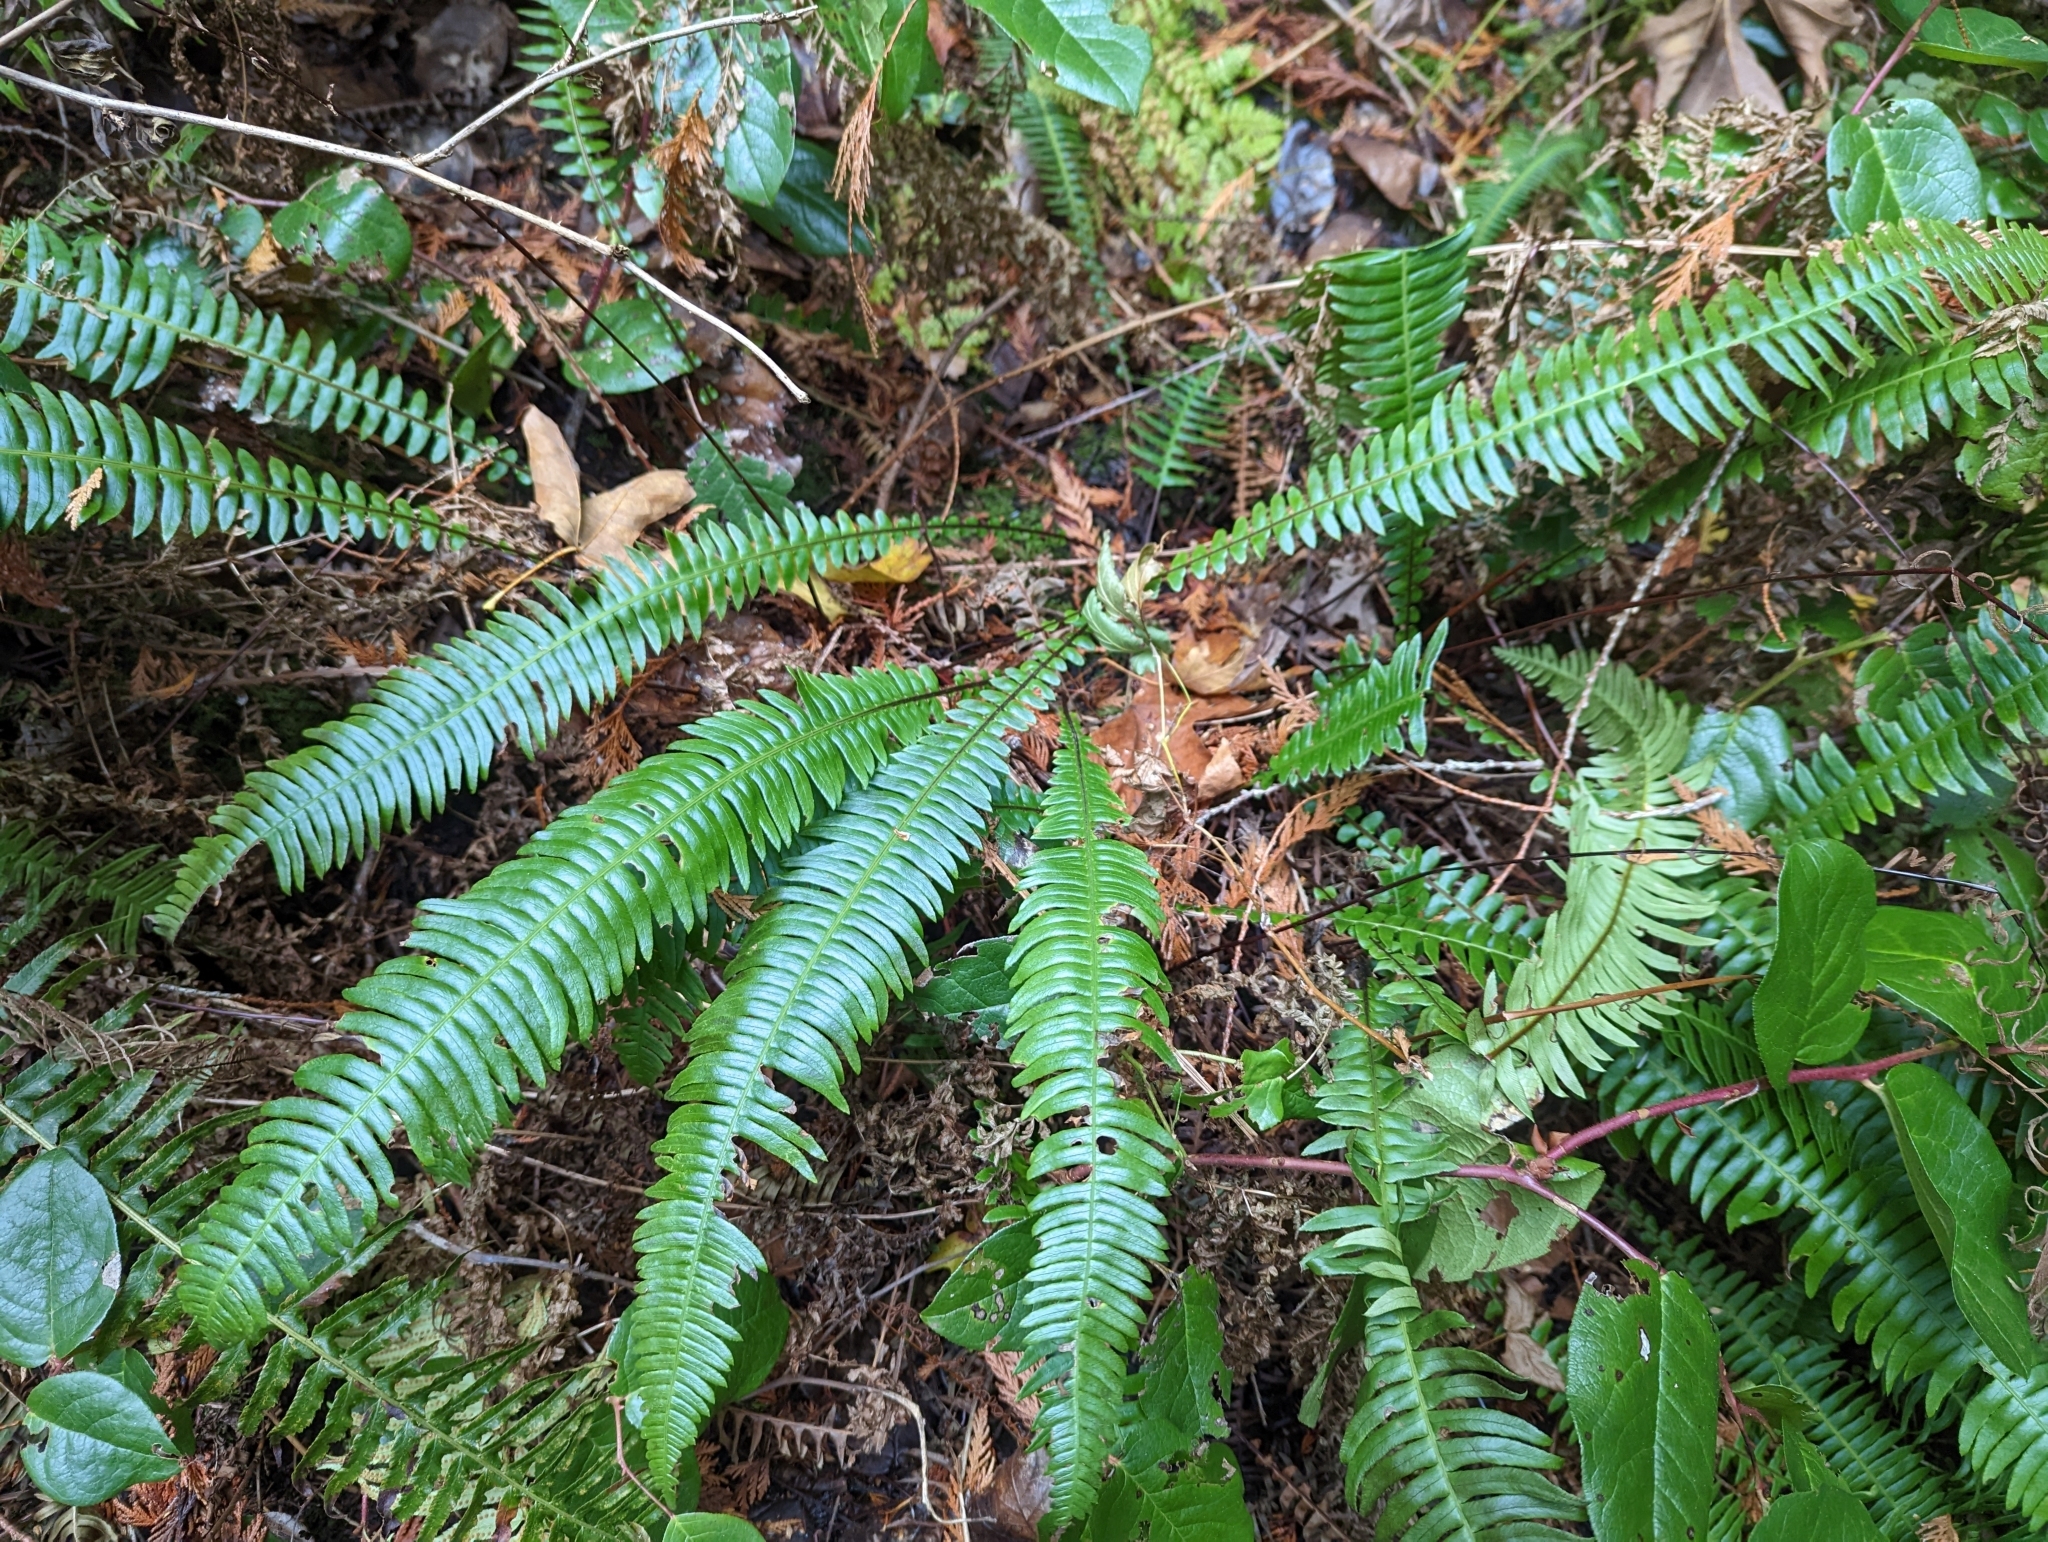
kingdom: Plantae
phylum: Tracheophyta
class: Polypodiopsida
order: Polypodiales
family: Blechnaceae
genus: Struthiopteris
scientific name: Struthiopteris spicant
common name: Deer fern
